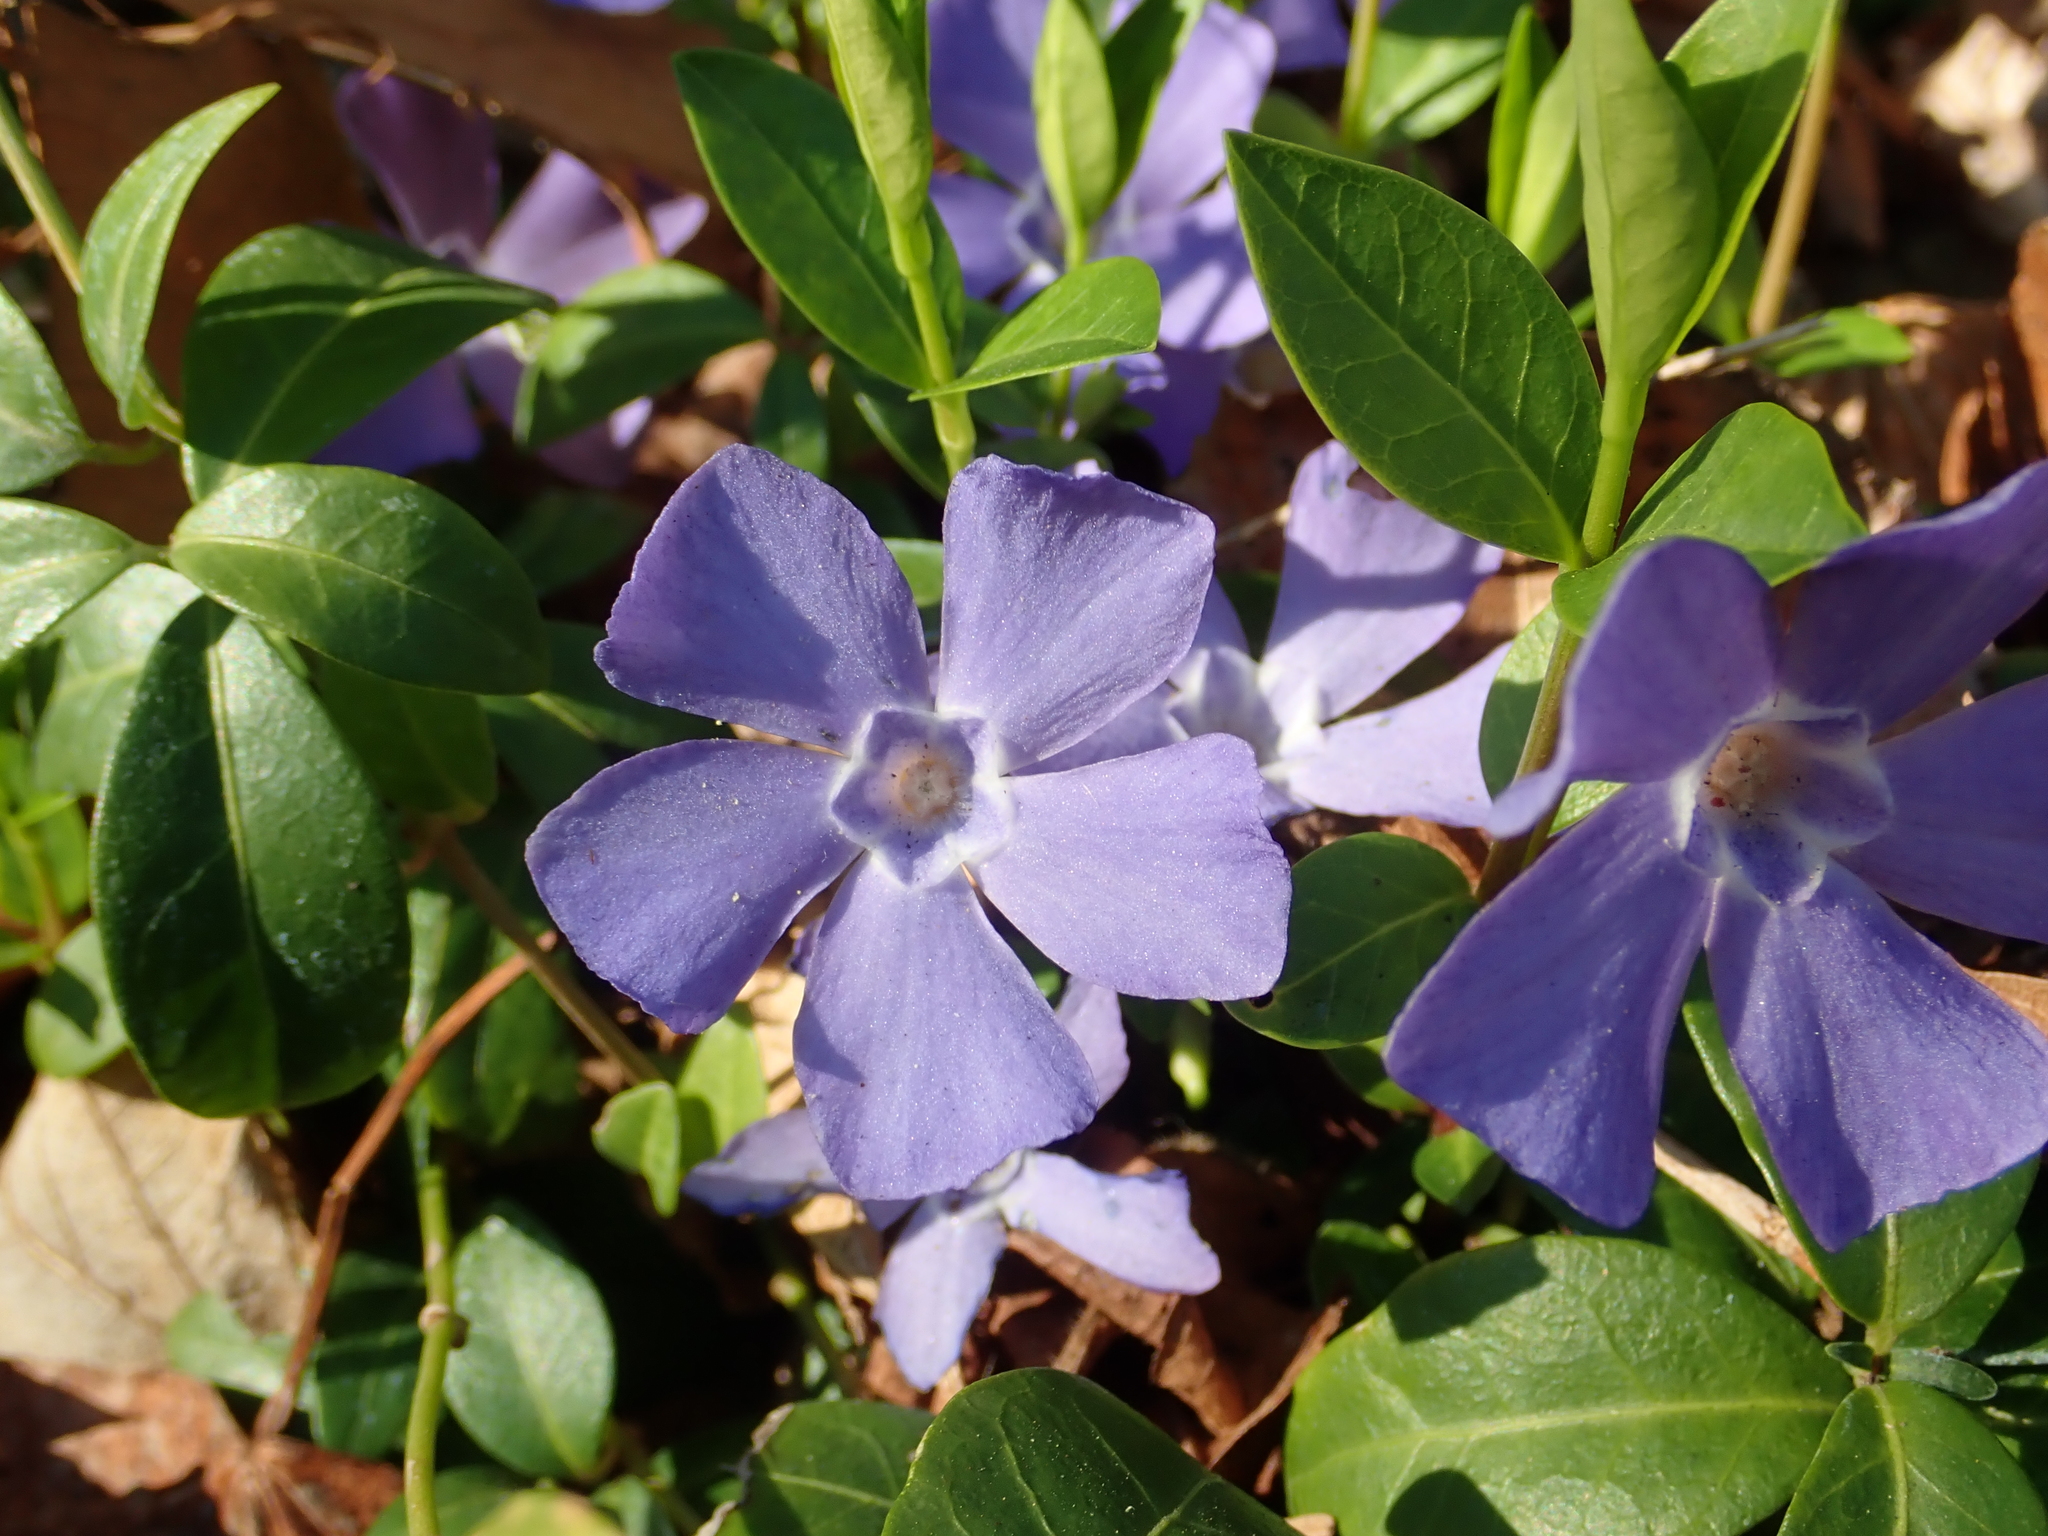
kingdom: Plantae
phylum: Tracheophyta
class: Magnoliopsida
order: Gentianales
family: Apocynaceae
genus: Vinca
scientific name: Vinca minor
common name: Lesser periwinkle
